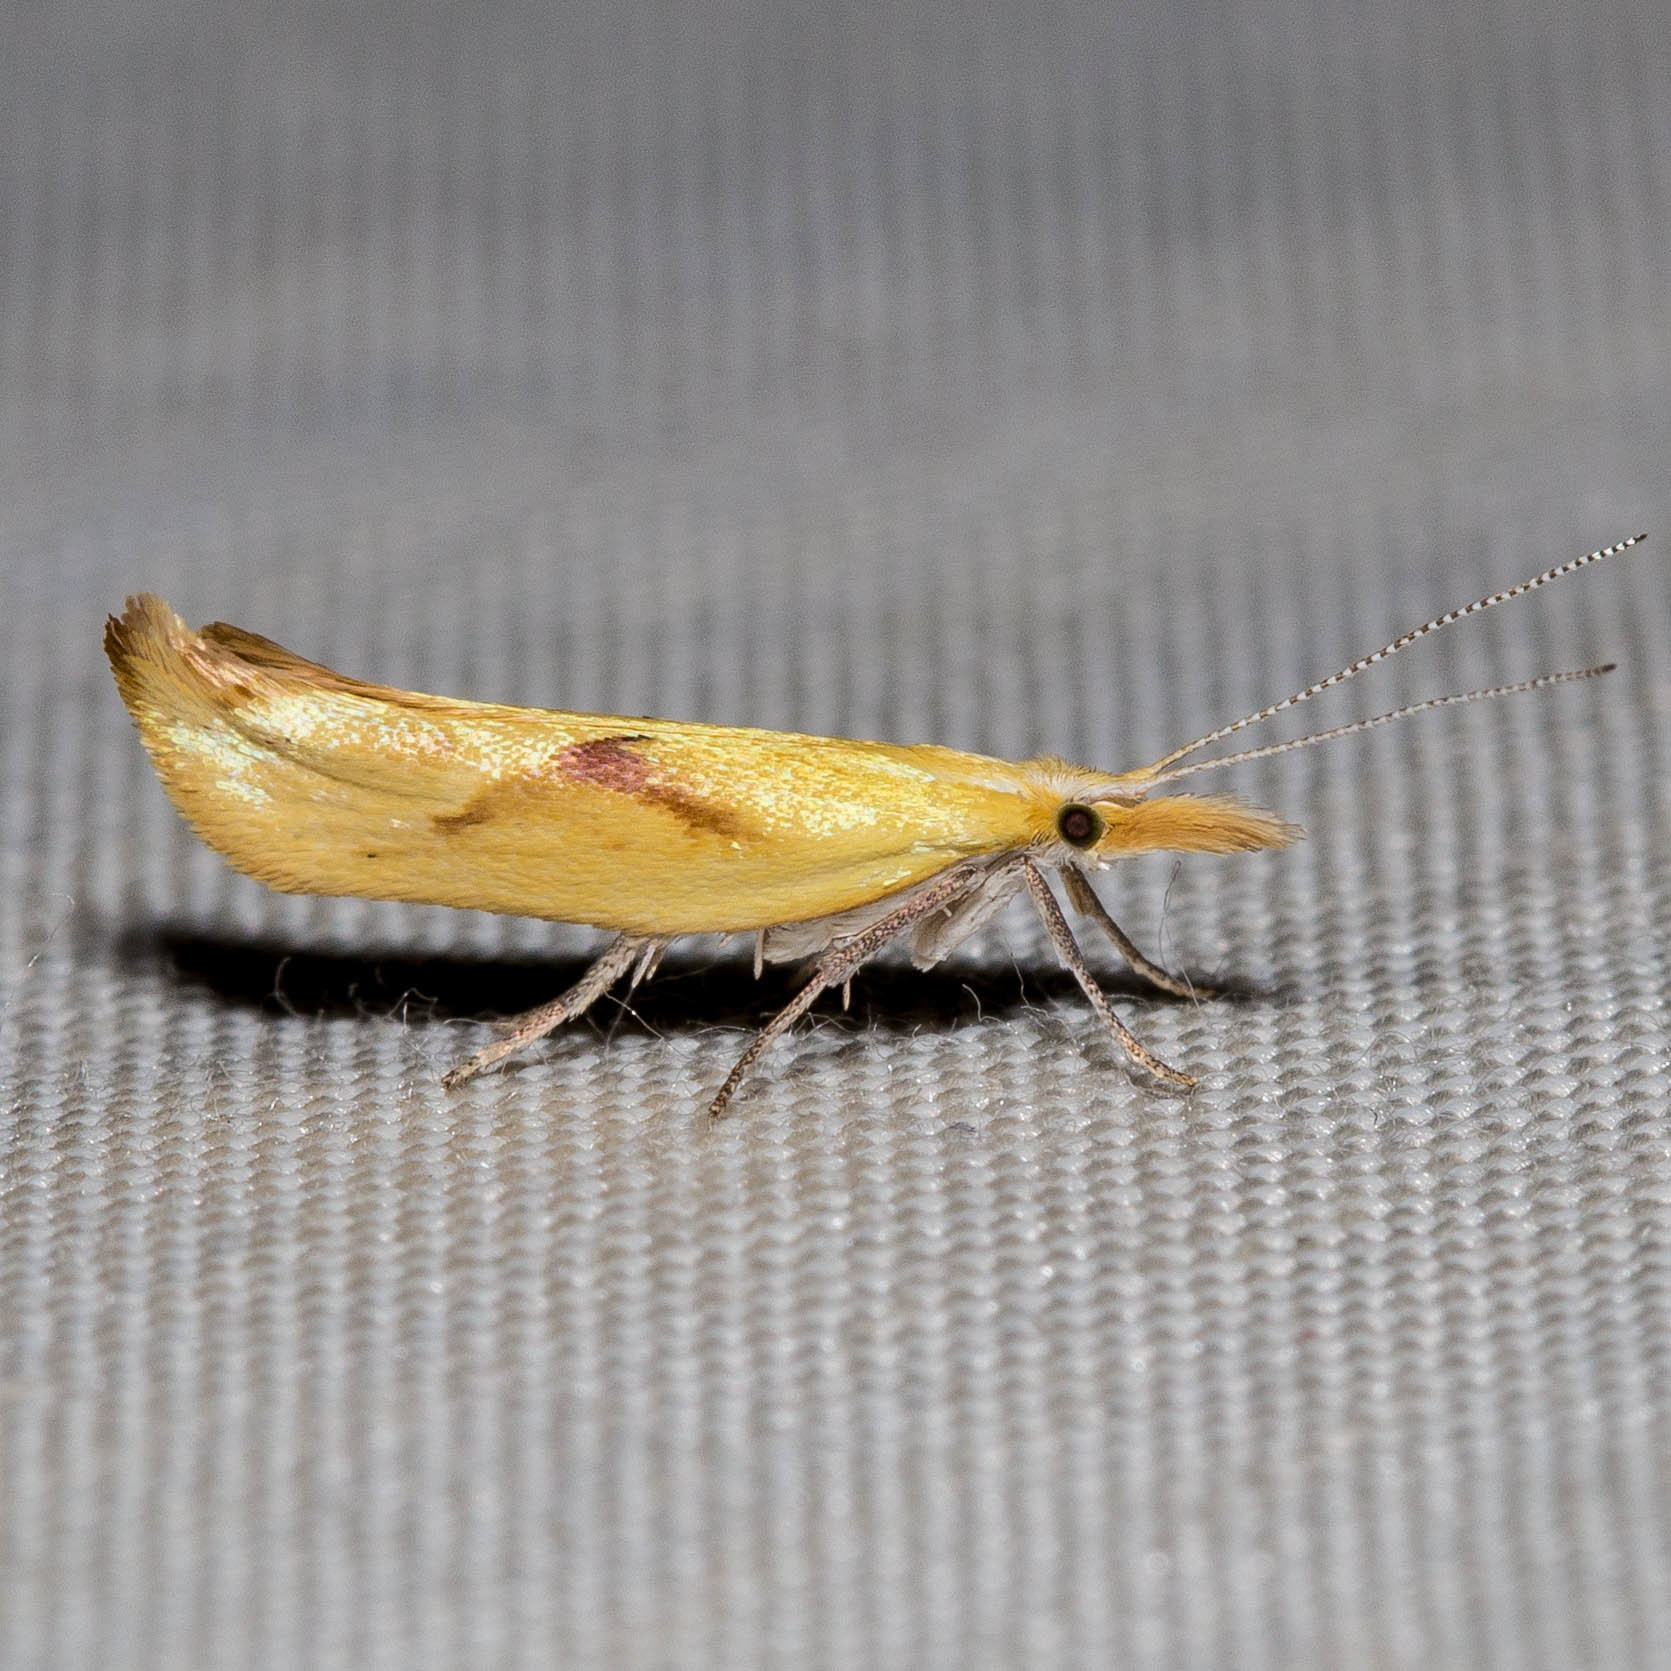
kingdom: Animalia
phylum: Arthropoda
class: Insecta
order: Lepidoptera
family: Ypsolophidae
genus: Ypsolopha
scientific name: Ypsolopha canariella
